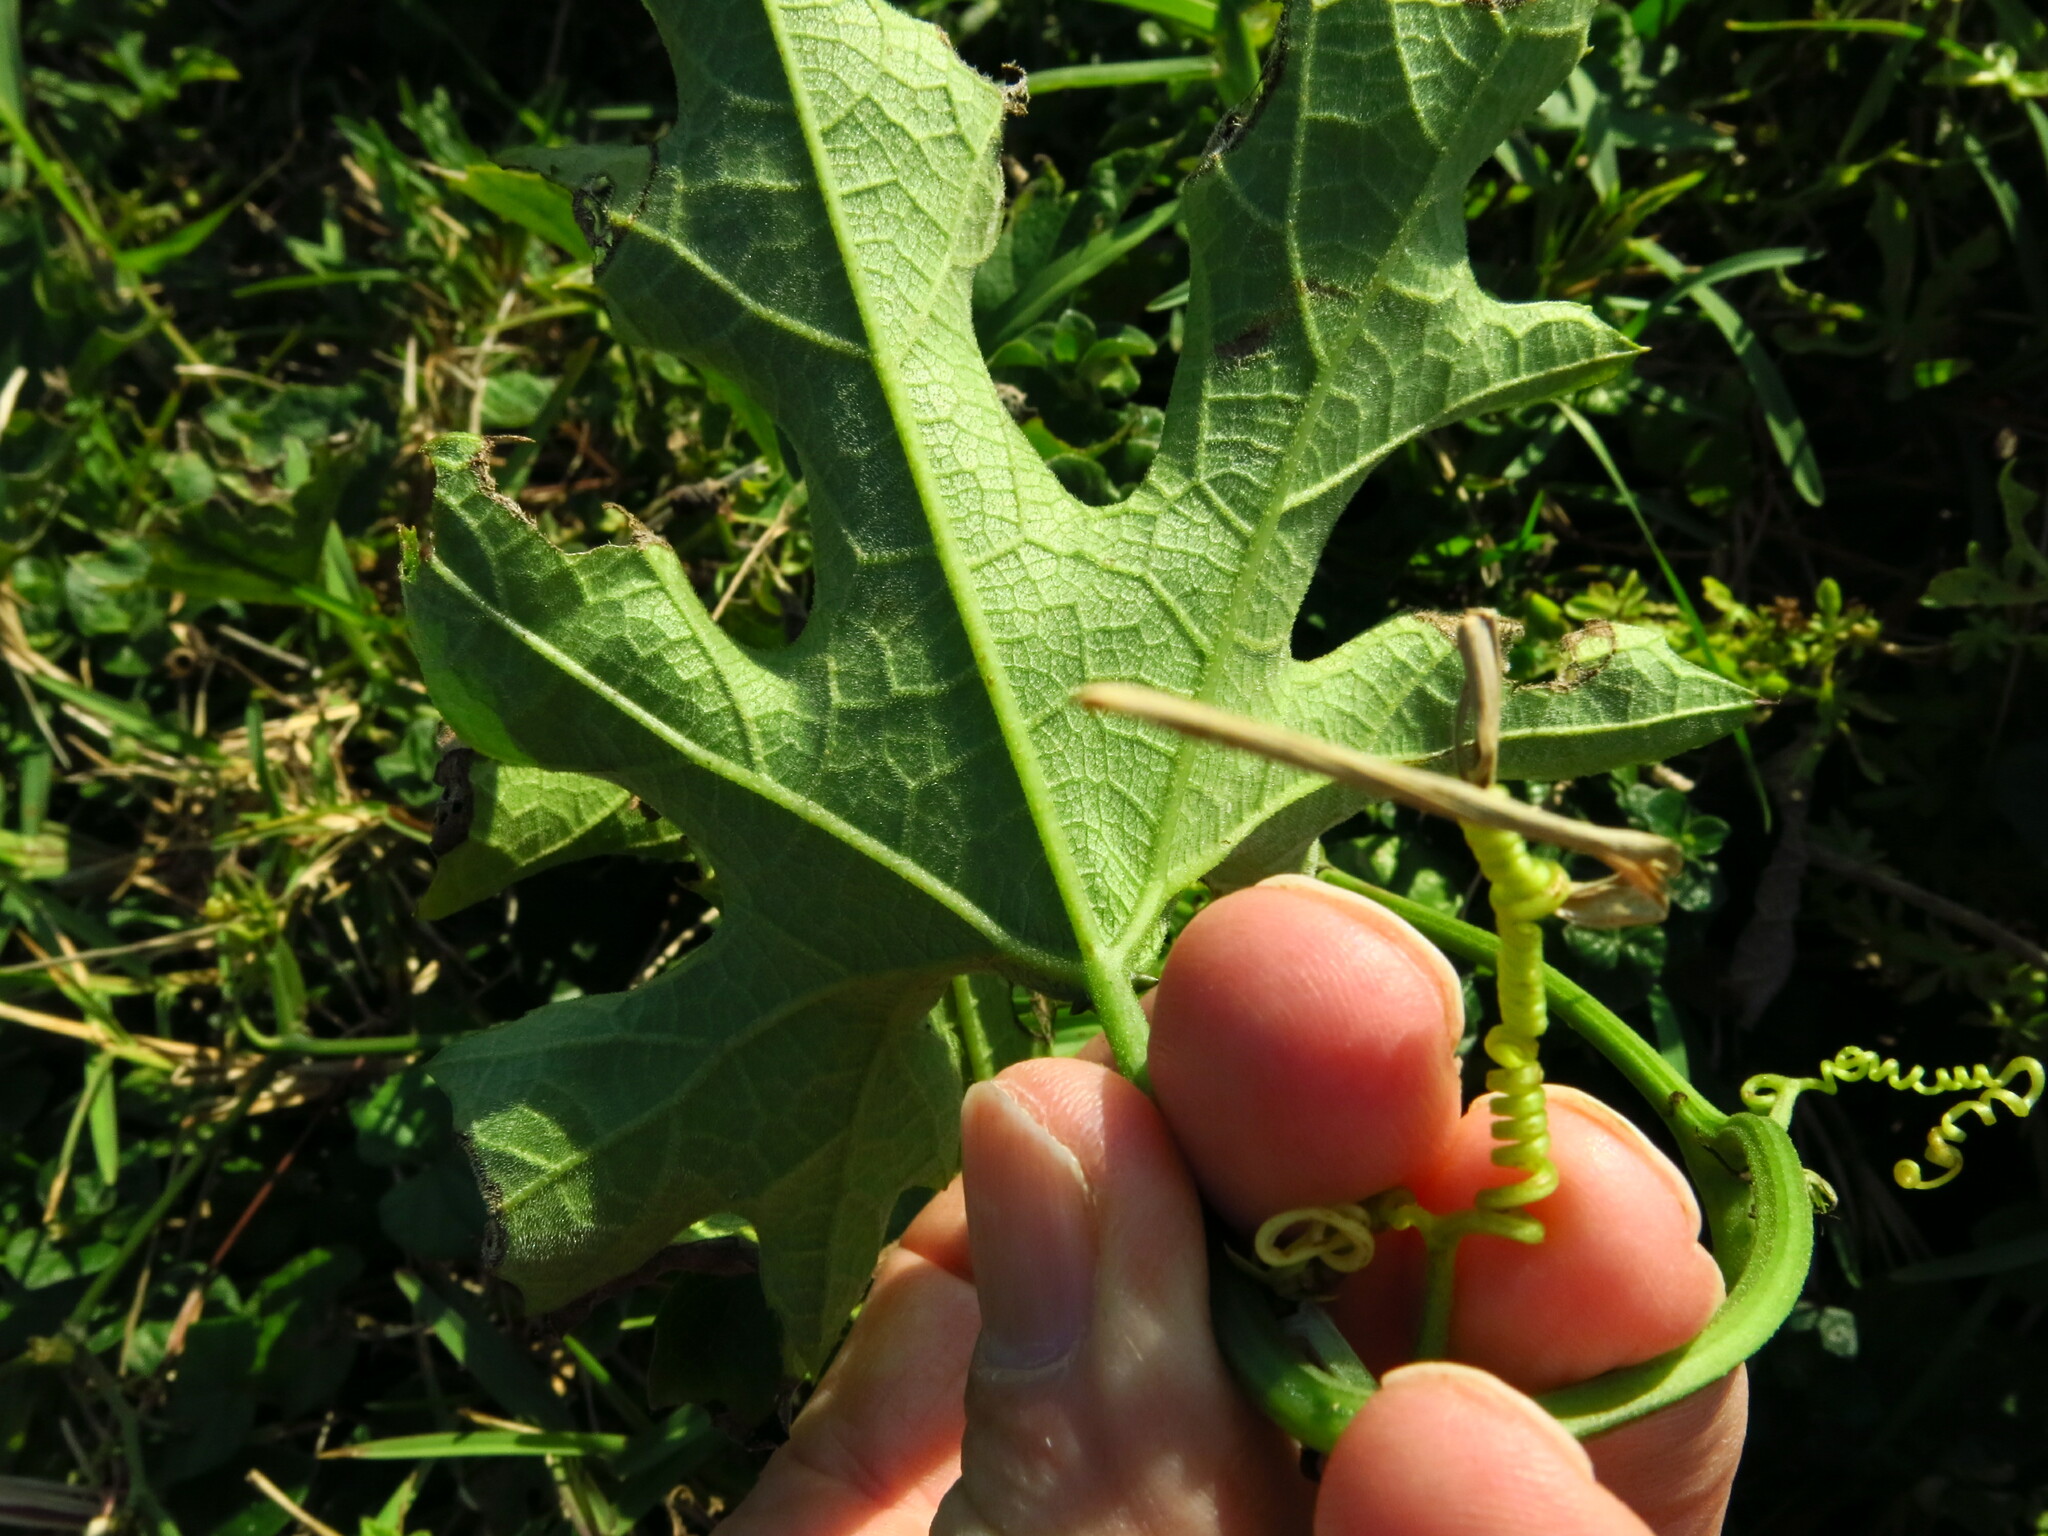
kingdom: Plantae
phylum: Tracheophyta
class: Magnoliopsida
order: Cucurbitales
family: Cucurbitaceae
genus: Lagenaria
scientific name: Lagenaria sphaerica
